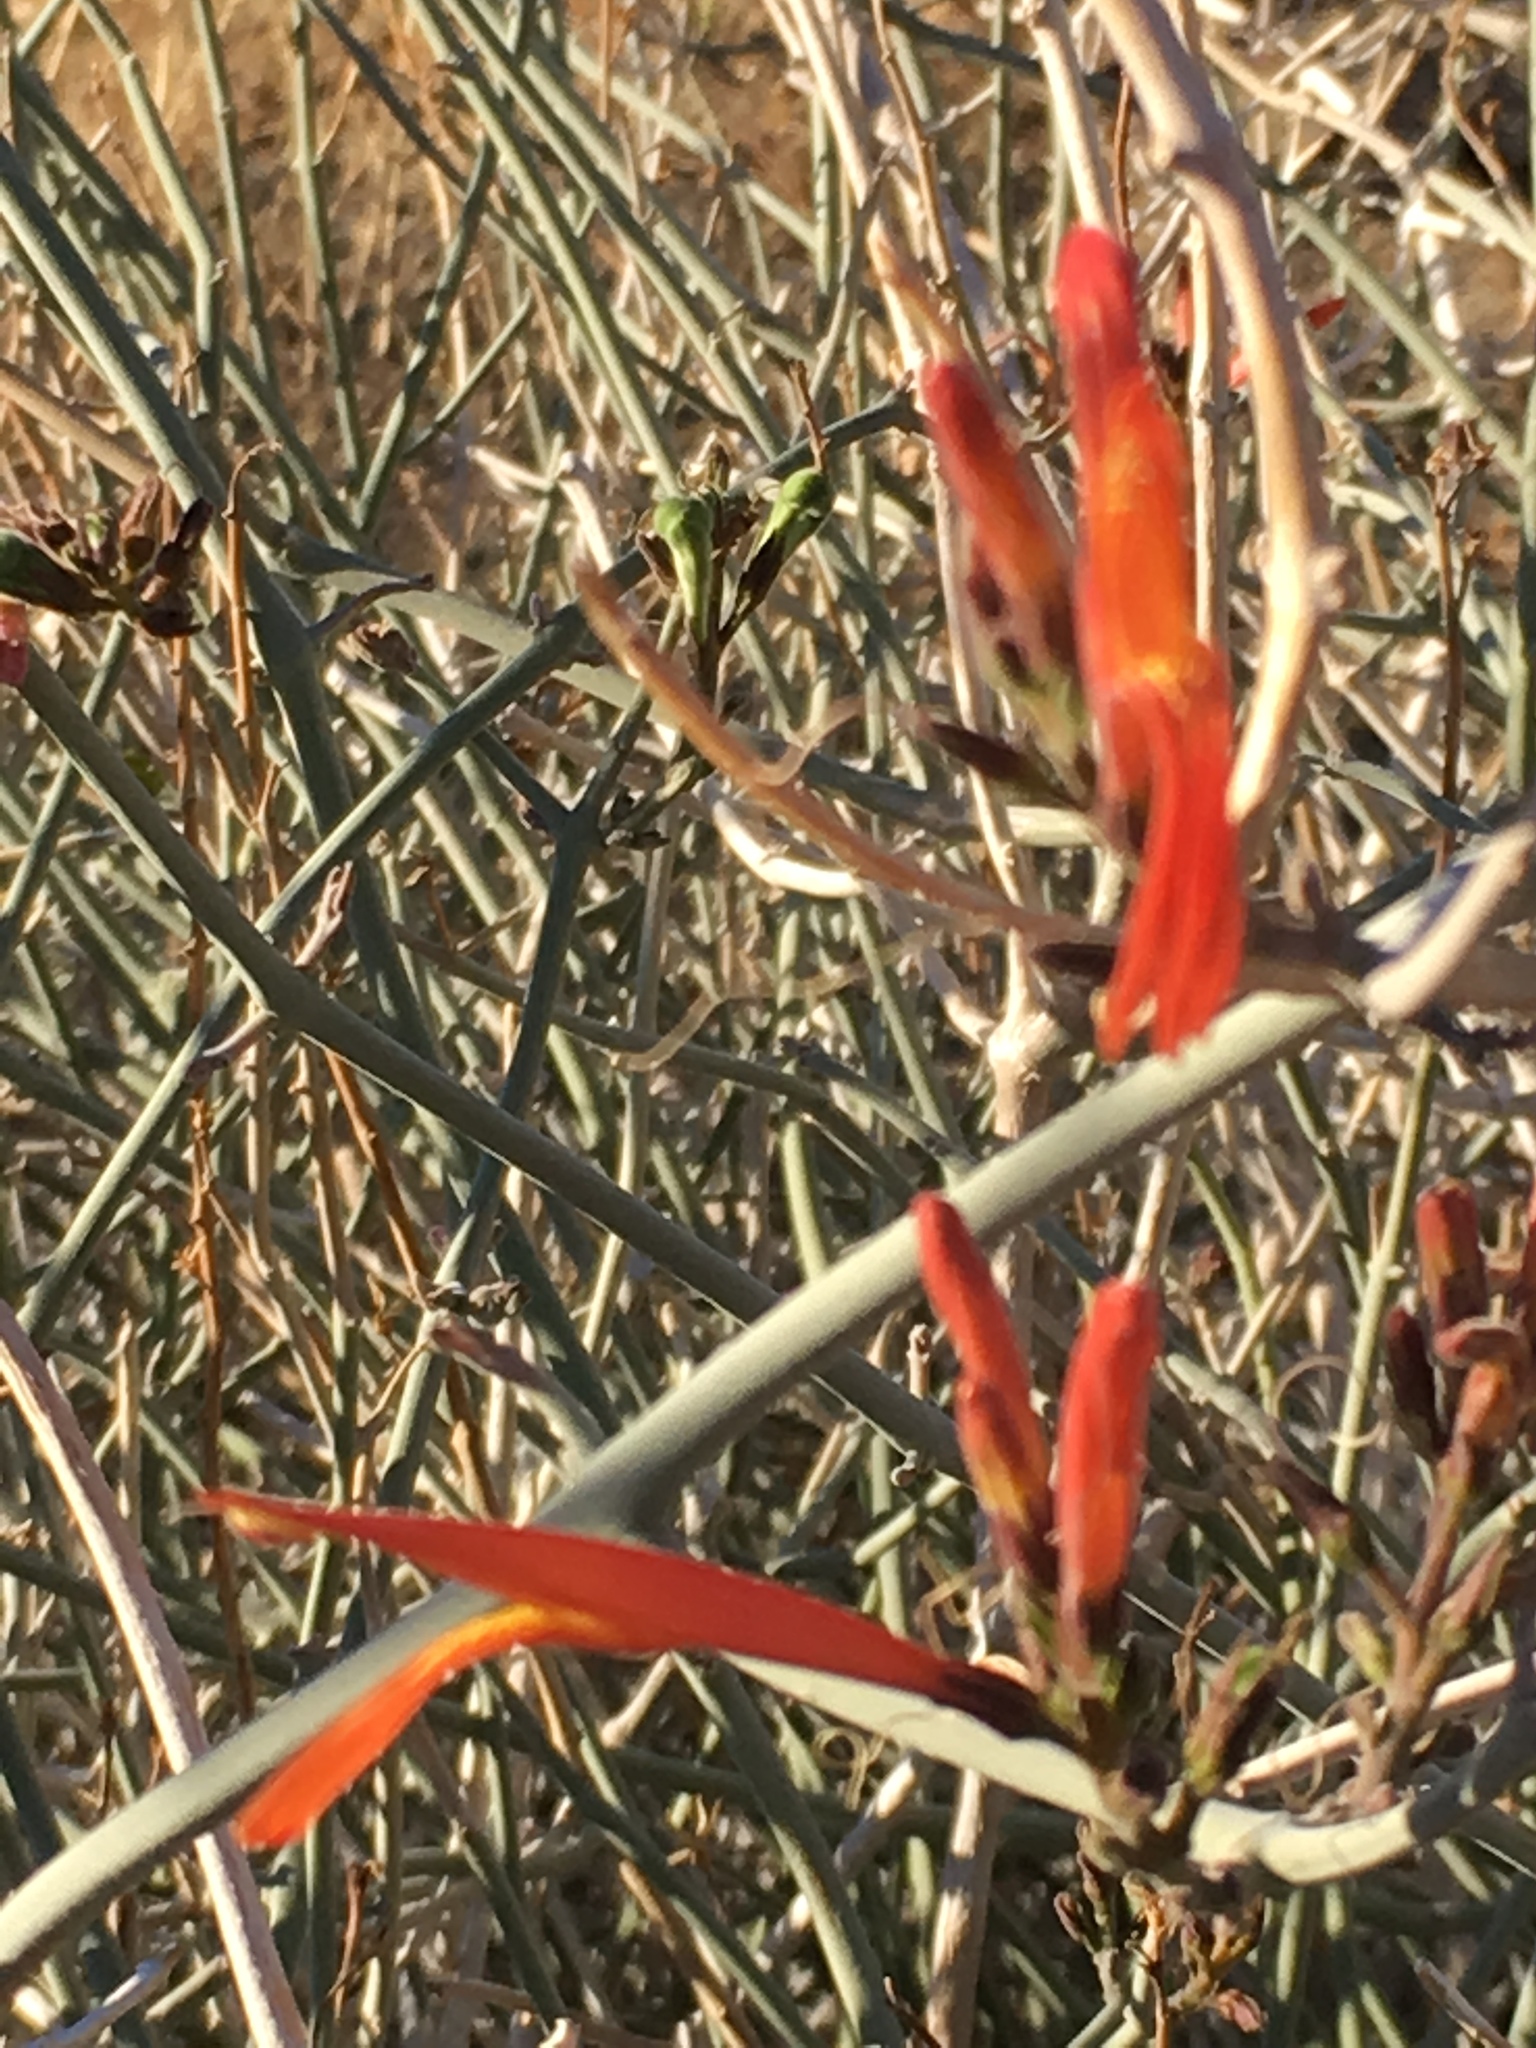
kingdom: Plantae
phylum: Tracheophyta
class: Magnoliopsida
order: Lamiales
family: Acanthaceae
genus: Justicia
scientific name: Justicia californica
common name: Chuparosa-honeysuckle
